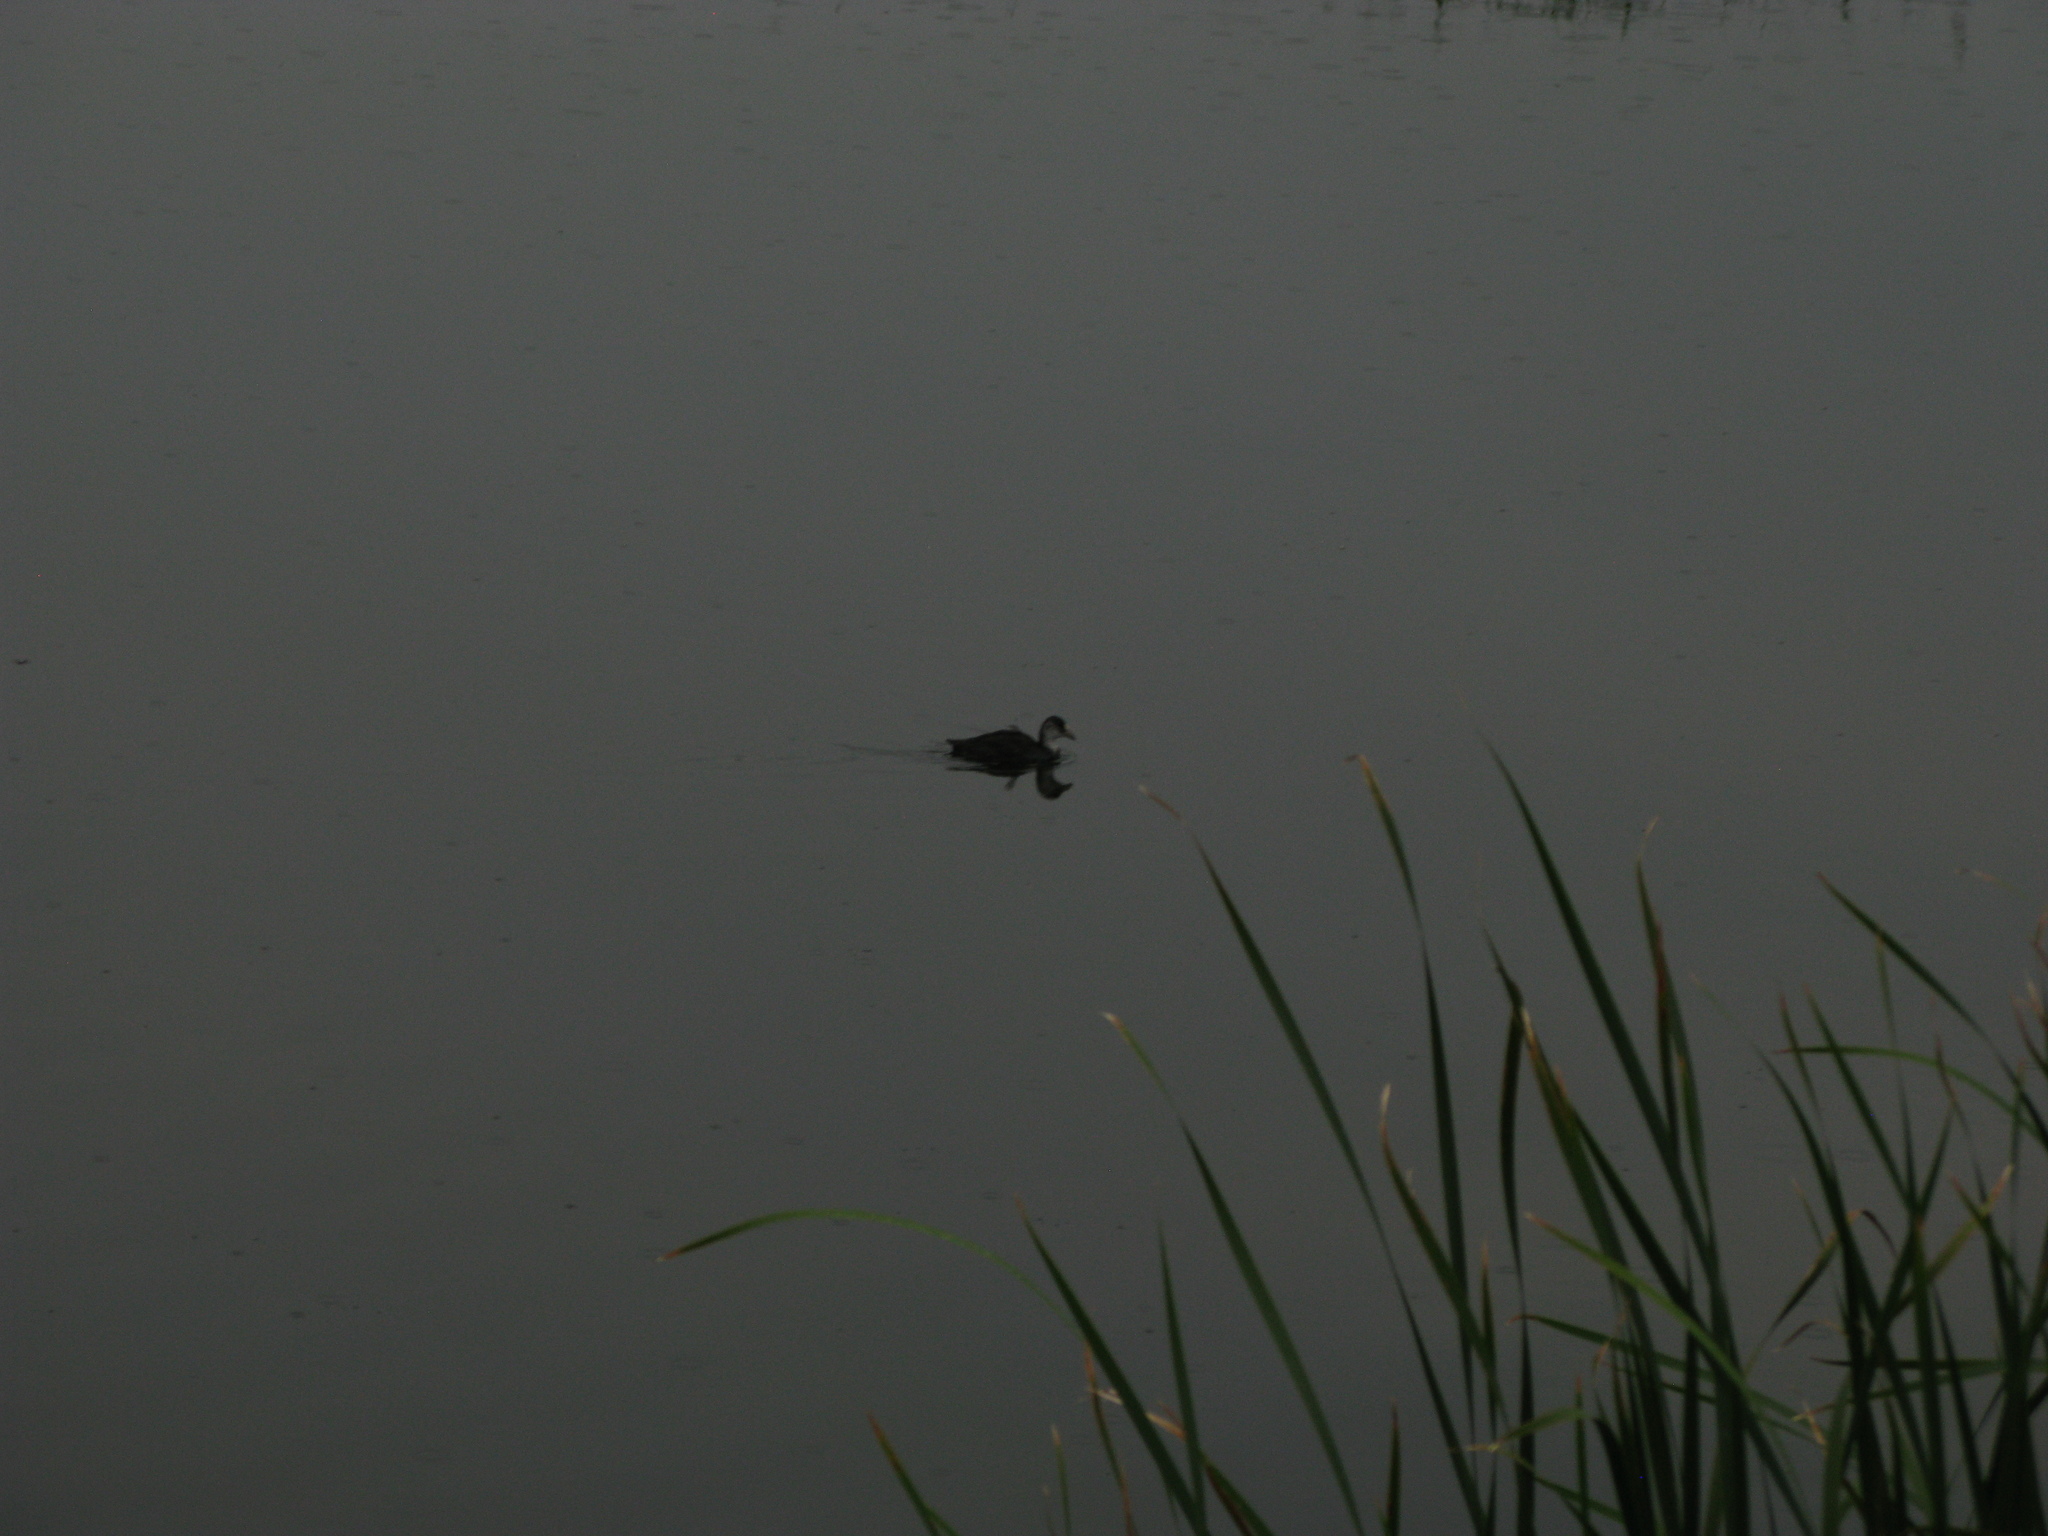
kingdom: Animalia
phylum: Chordata
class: Aves
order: Gruiformes
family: Rallidae
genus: Fulica
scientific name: Fulica atra
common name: Eurasian coot
